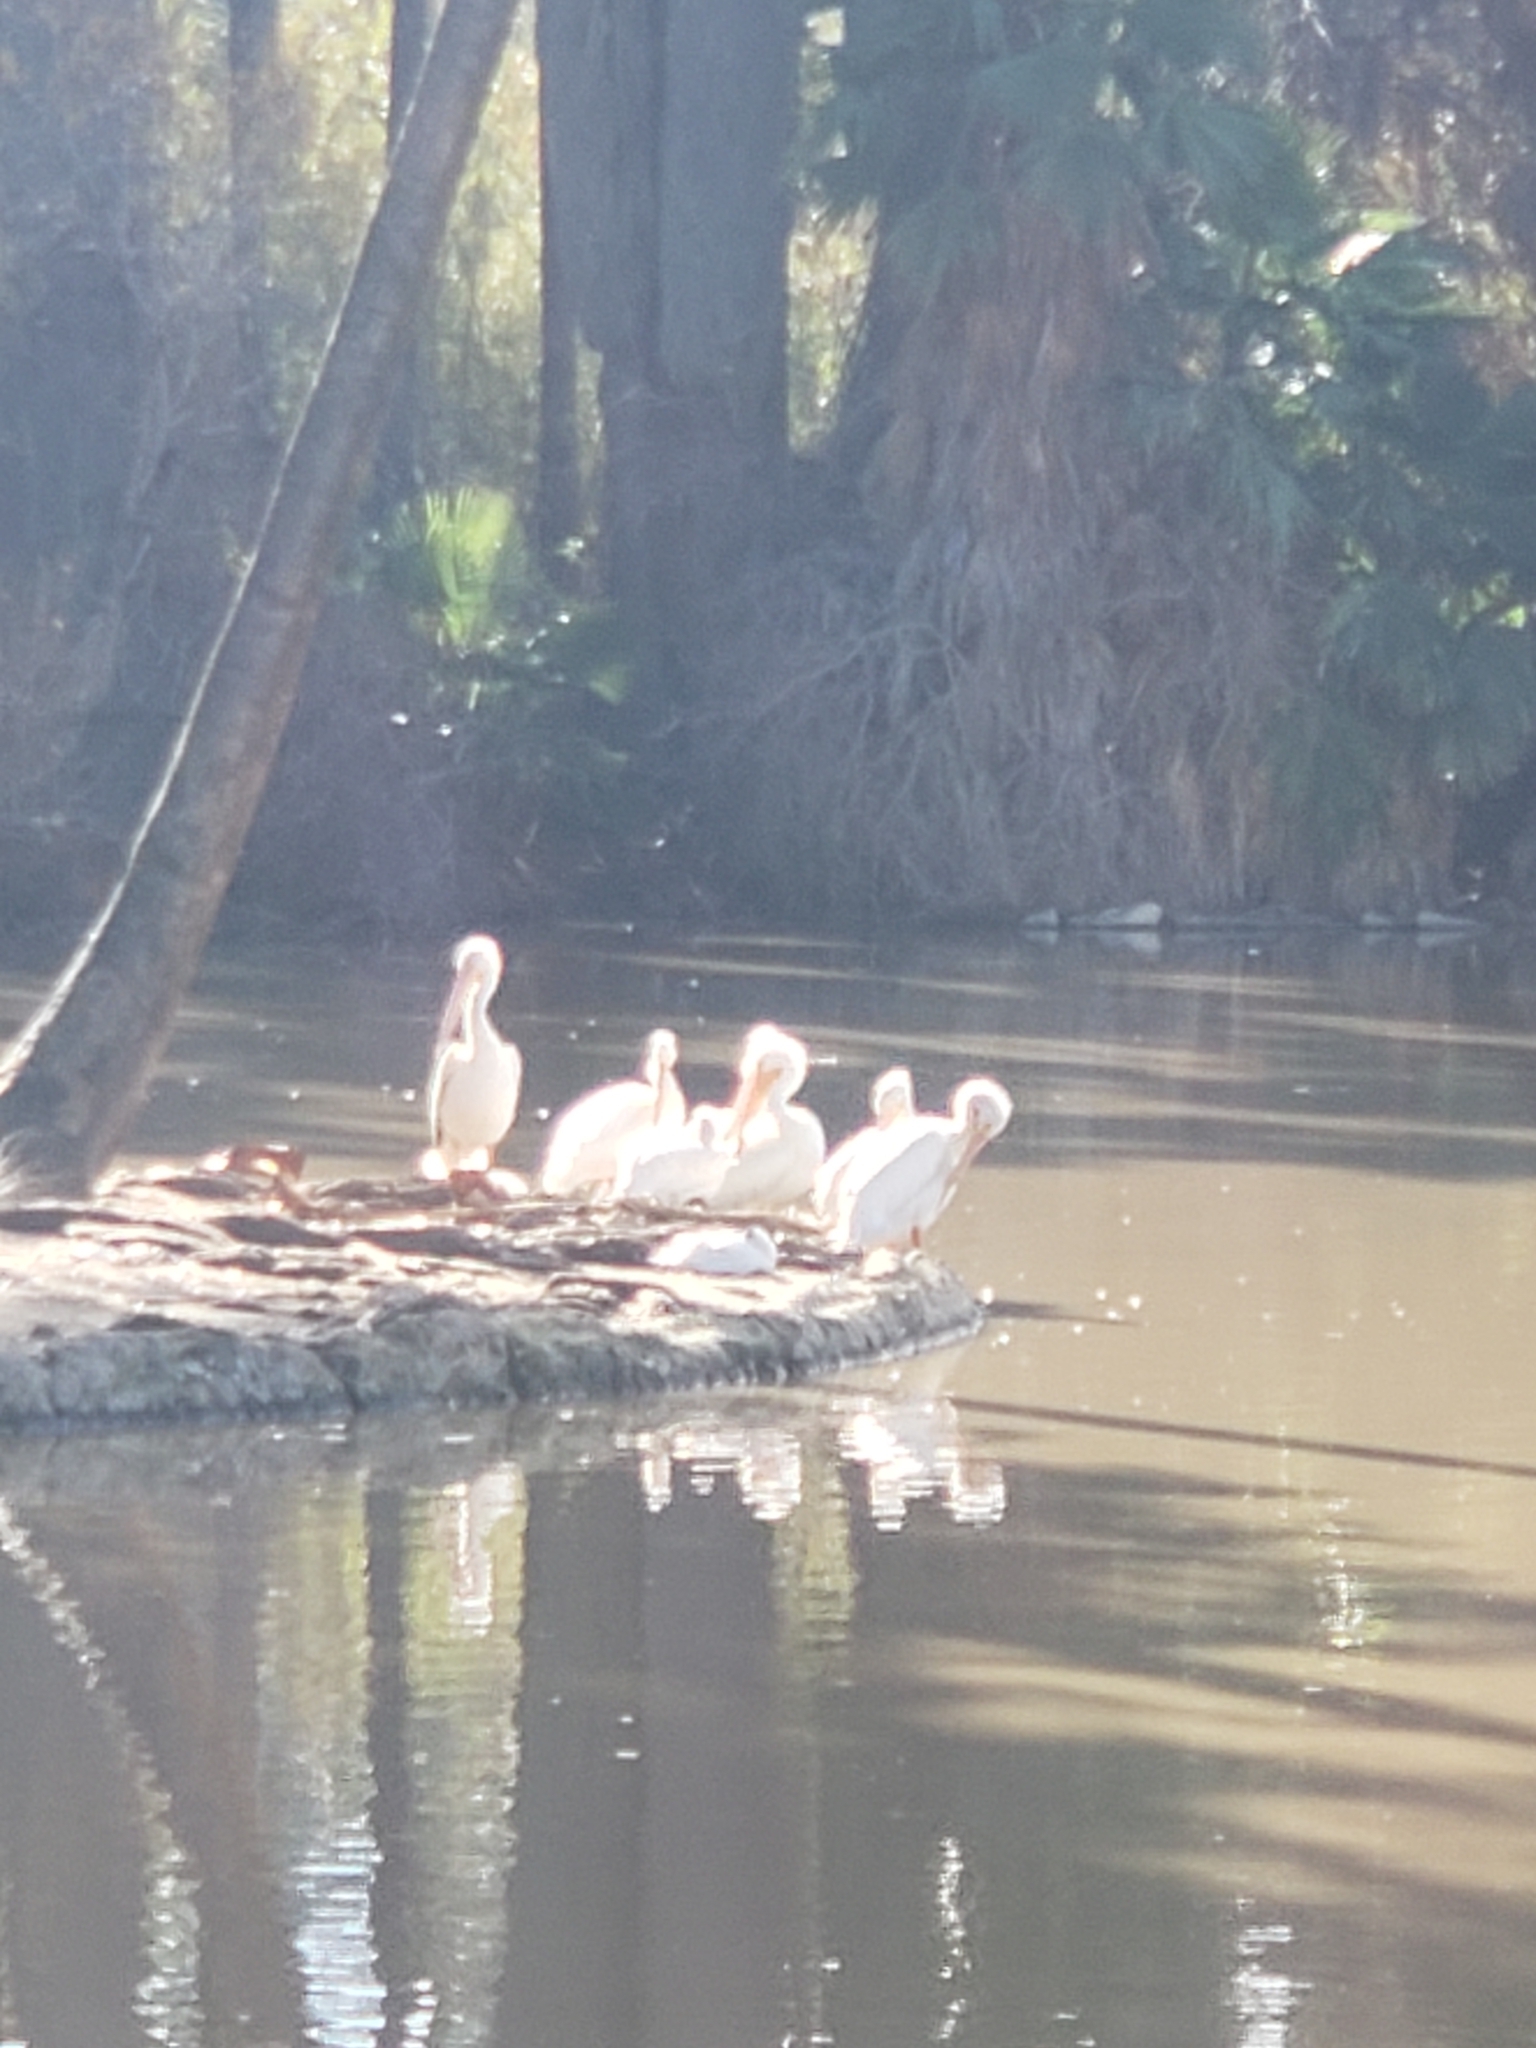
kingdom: Animalia
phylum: Chordata
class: Aves
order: Pelecaniformes
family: Pelecanidae
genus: Pelecanus
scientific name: Pelecanus erythrorhynchos
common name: American white pelican
